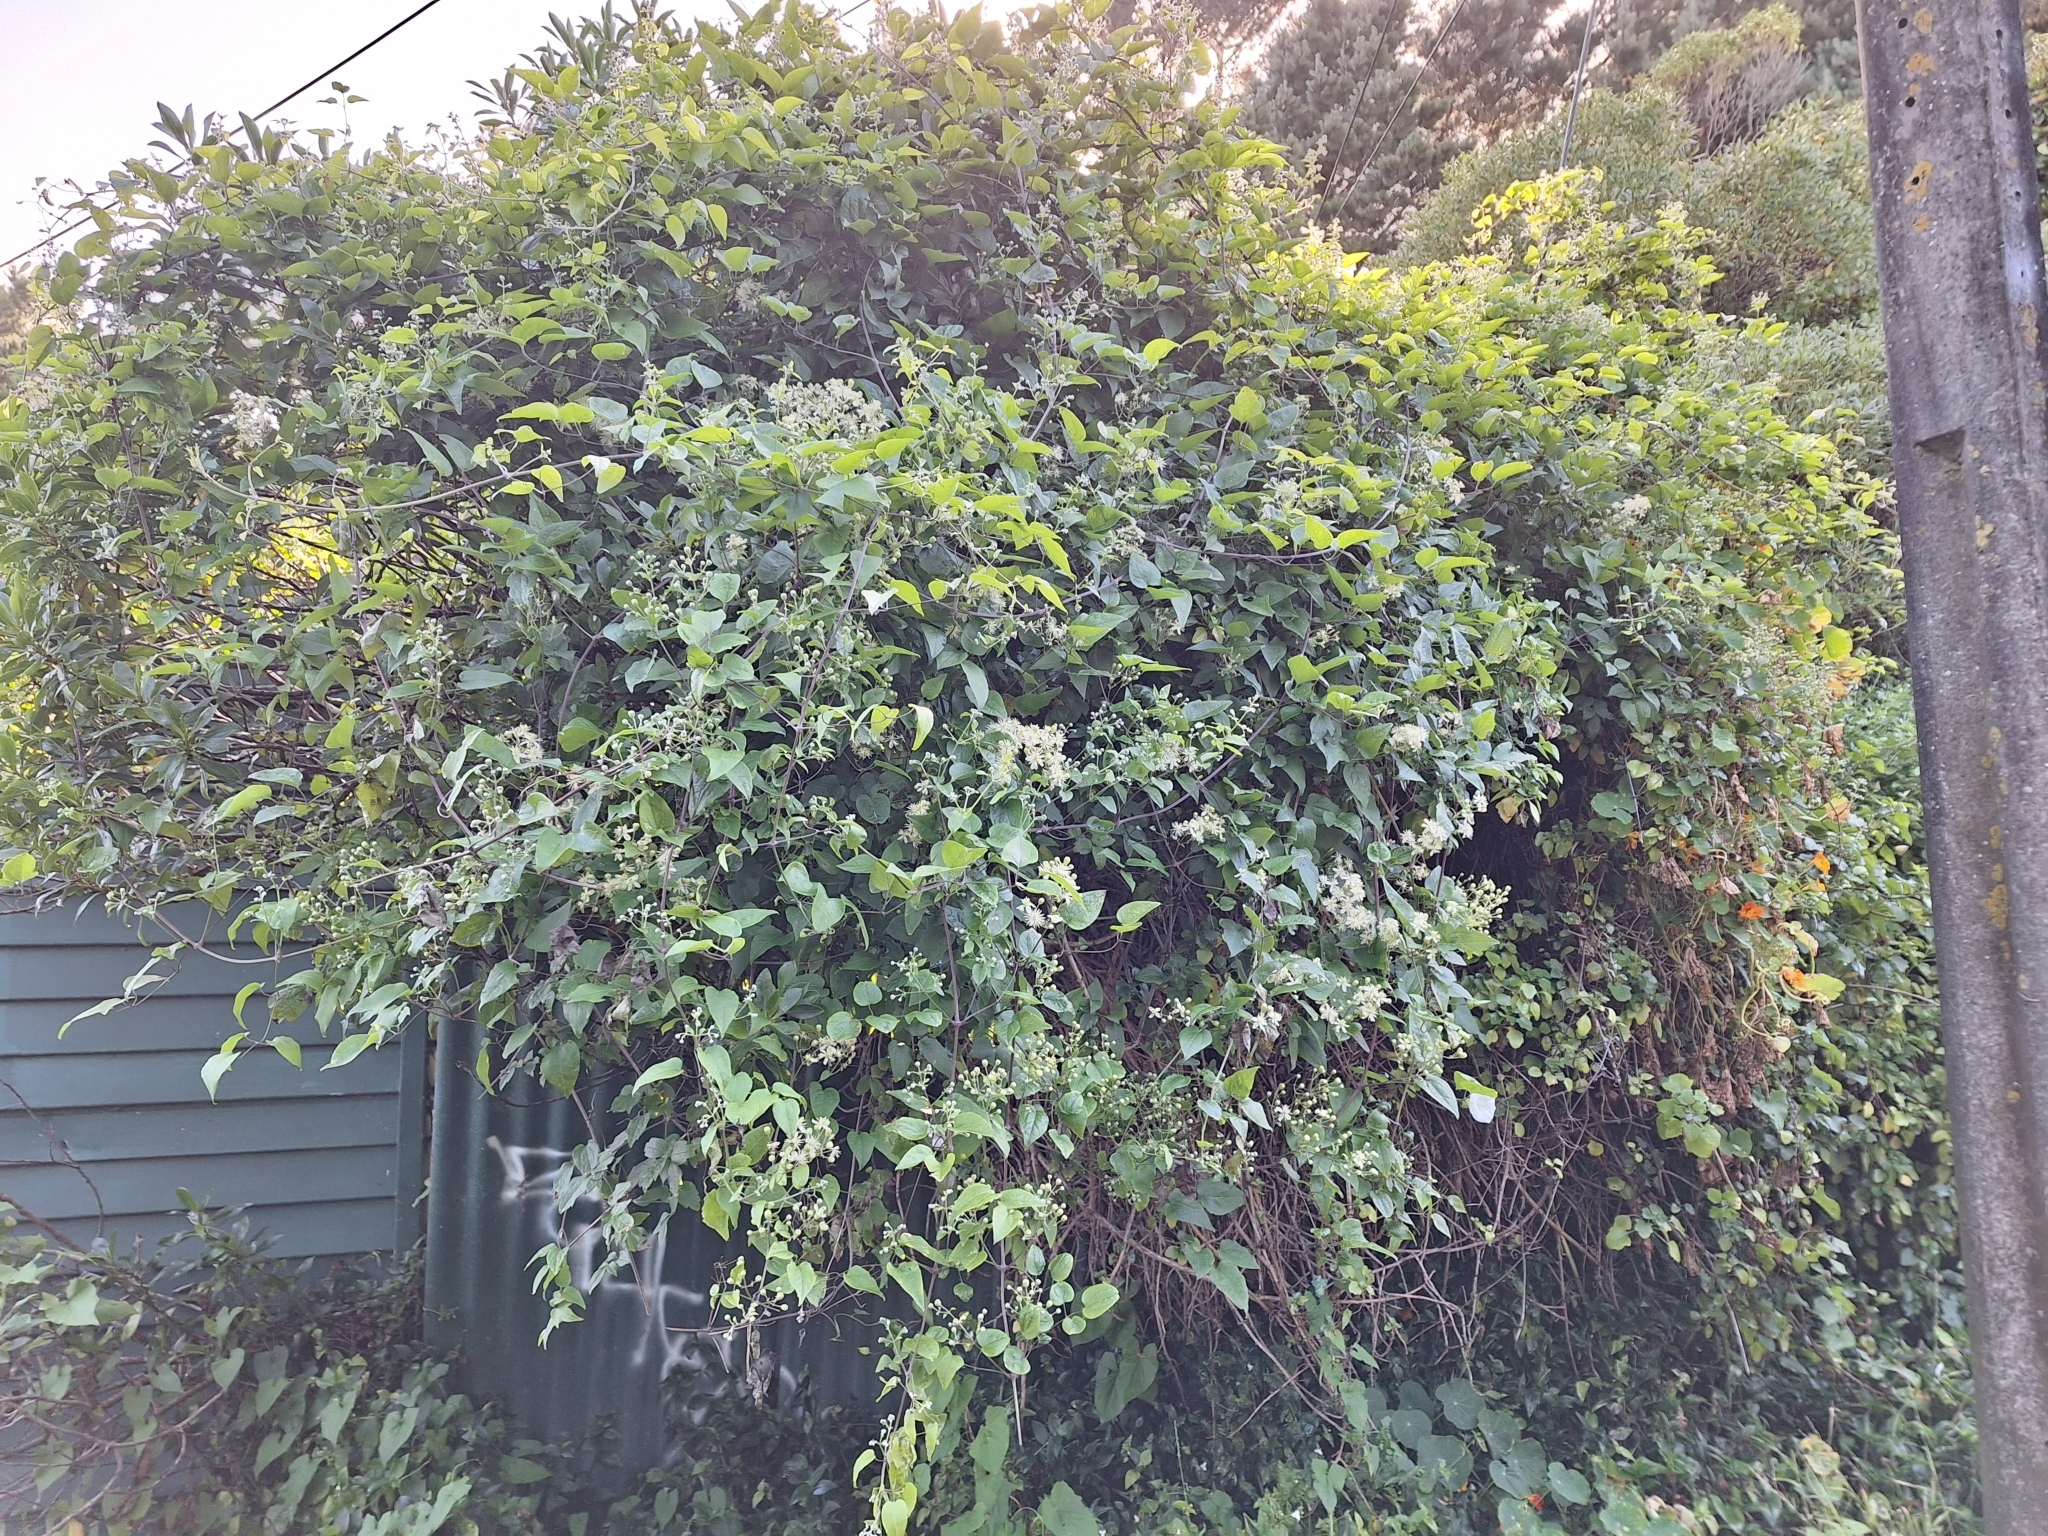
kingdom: Plantae
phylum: Tracheophyta
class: Magnoliopsida
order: Ranunculales
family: Ranunculaceae
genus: Clematis
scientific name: Clematis vitalba
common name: Evergreen clematis
